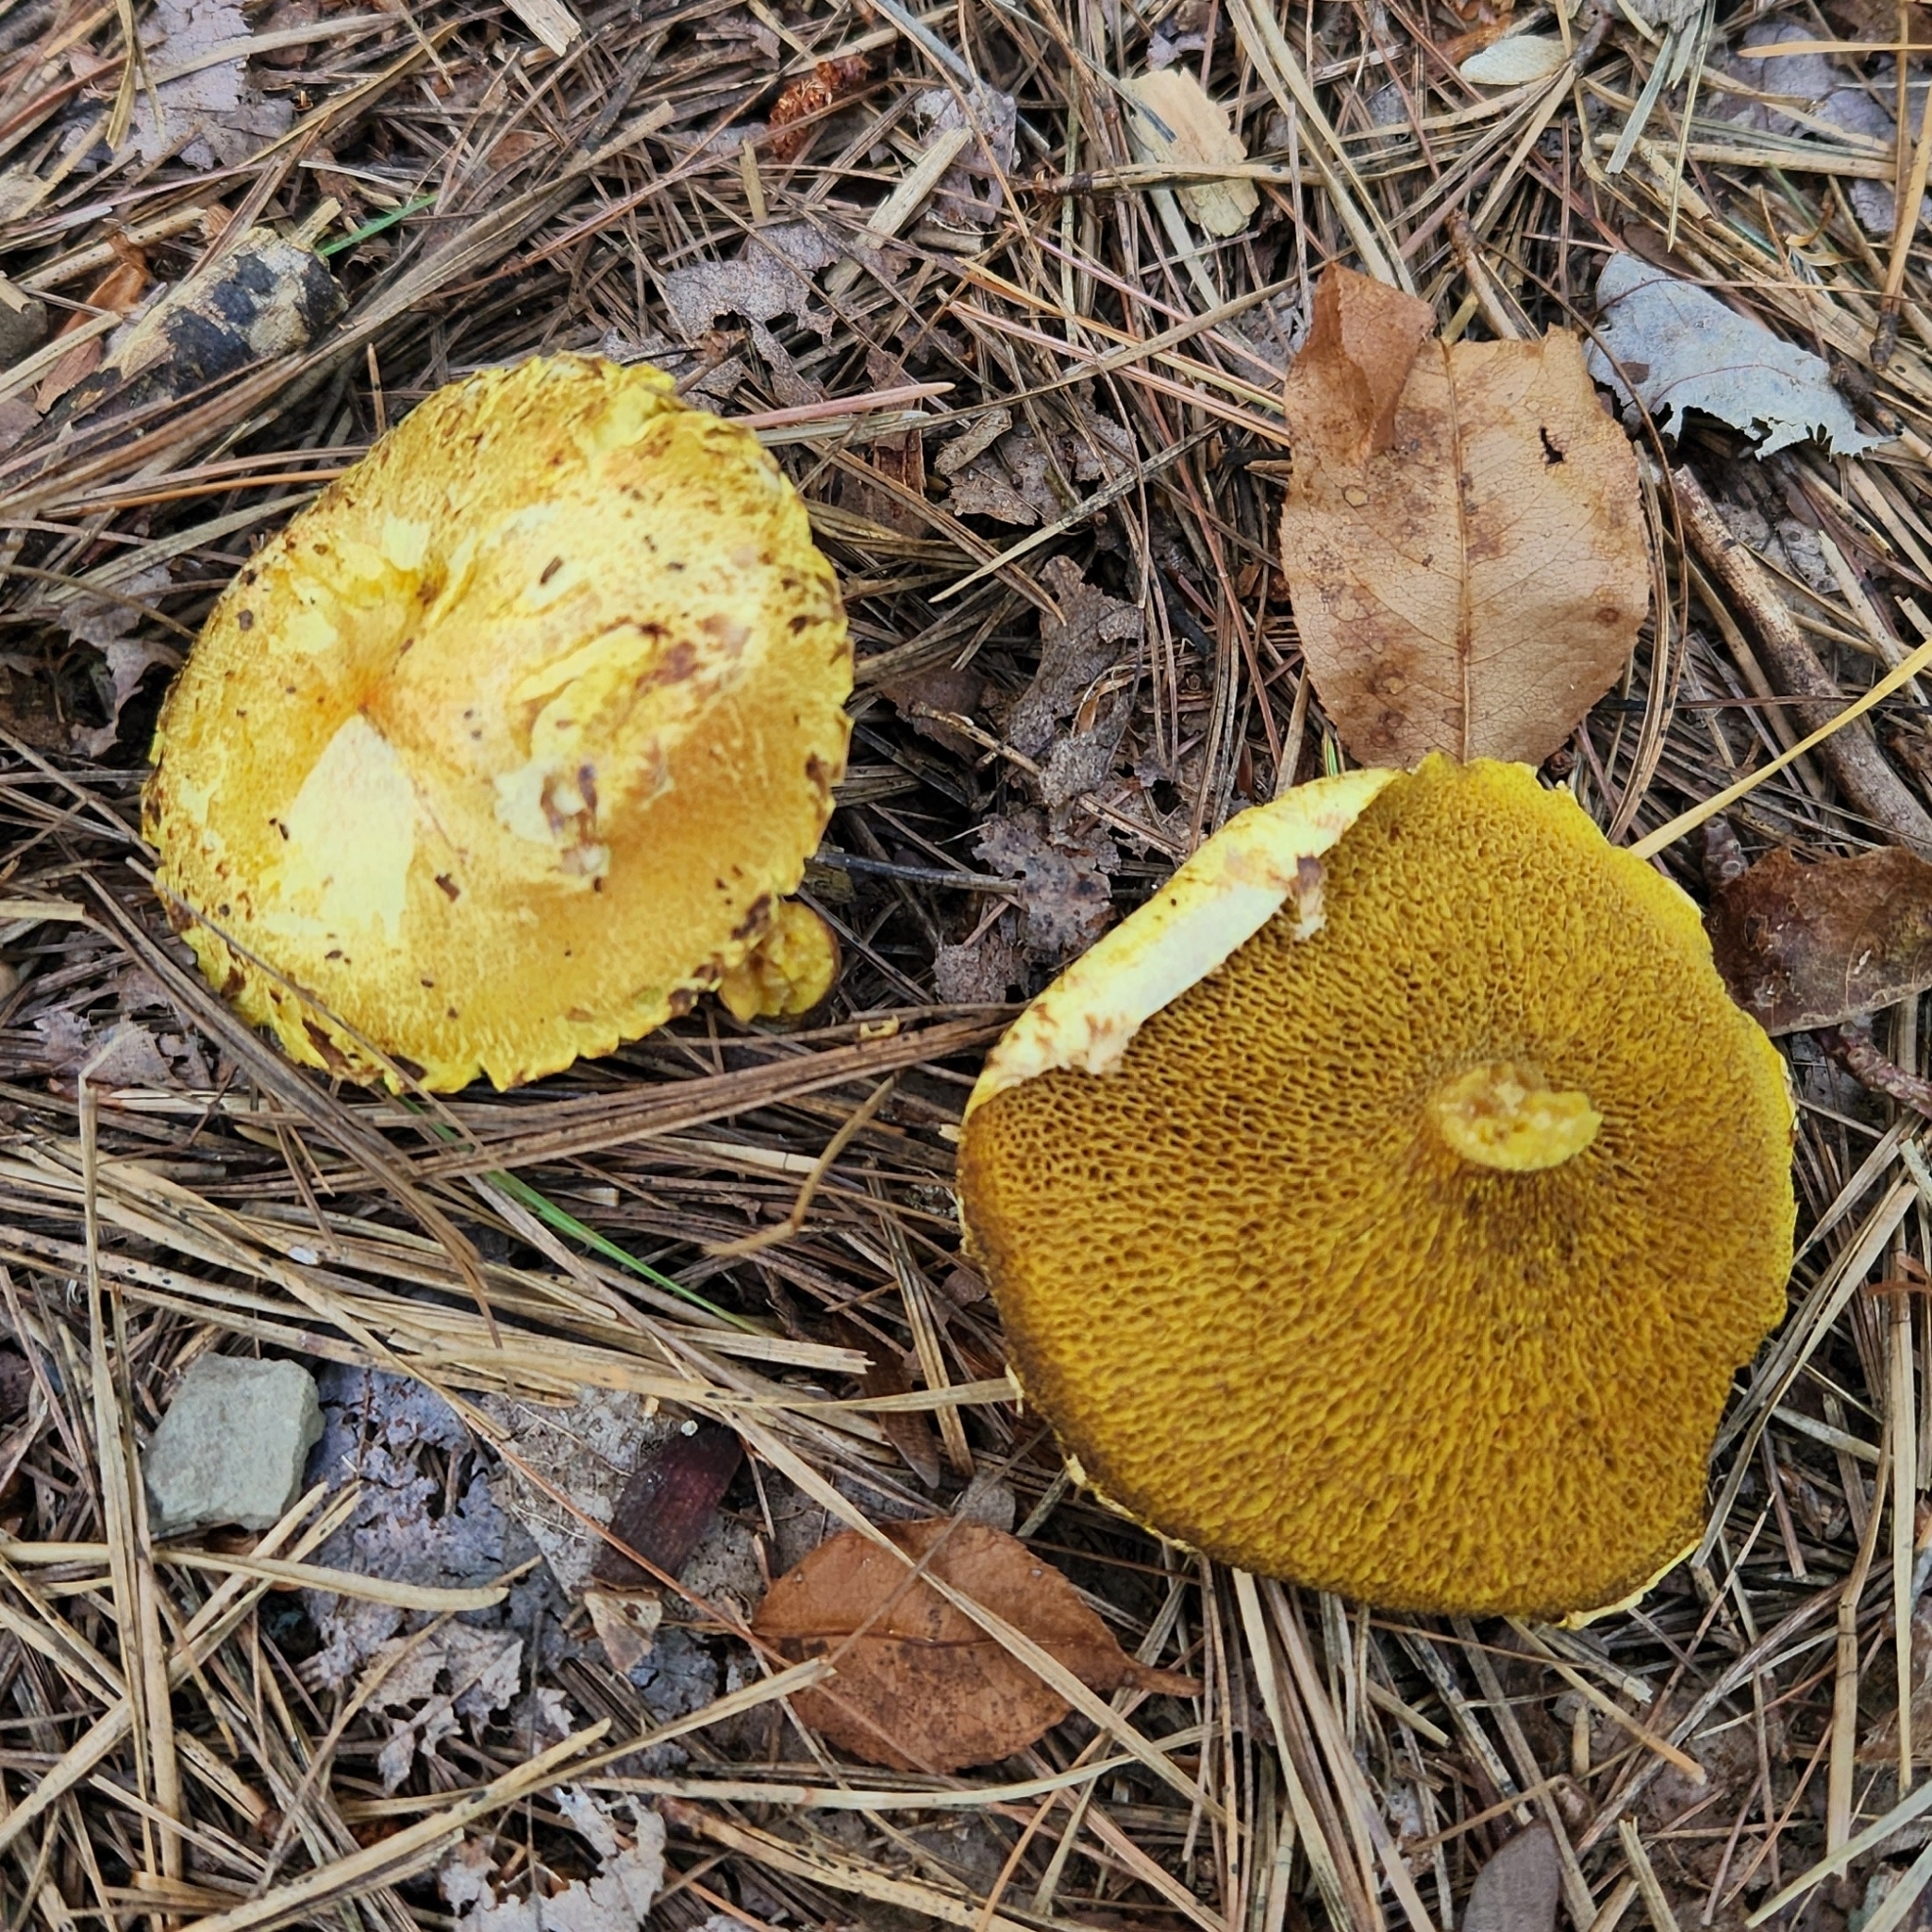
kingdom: Fungi
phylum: Basidiomycota
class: Agaricomycetes
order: Boletales
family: Suillaceae
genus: Suillus
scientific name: Suillus americanus
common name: Chicken fat mushroom
